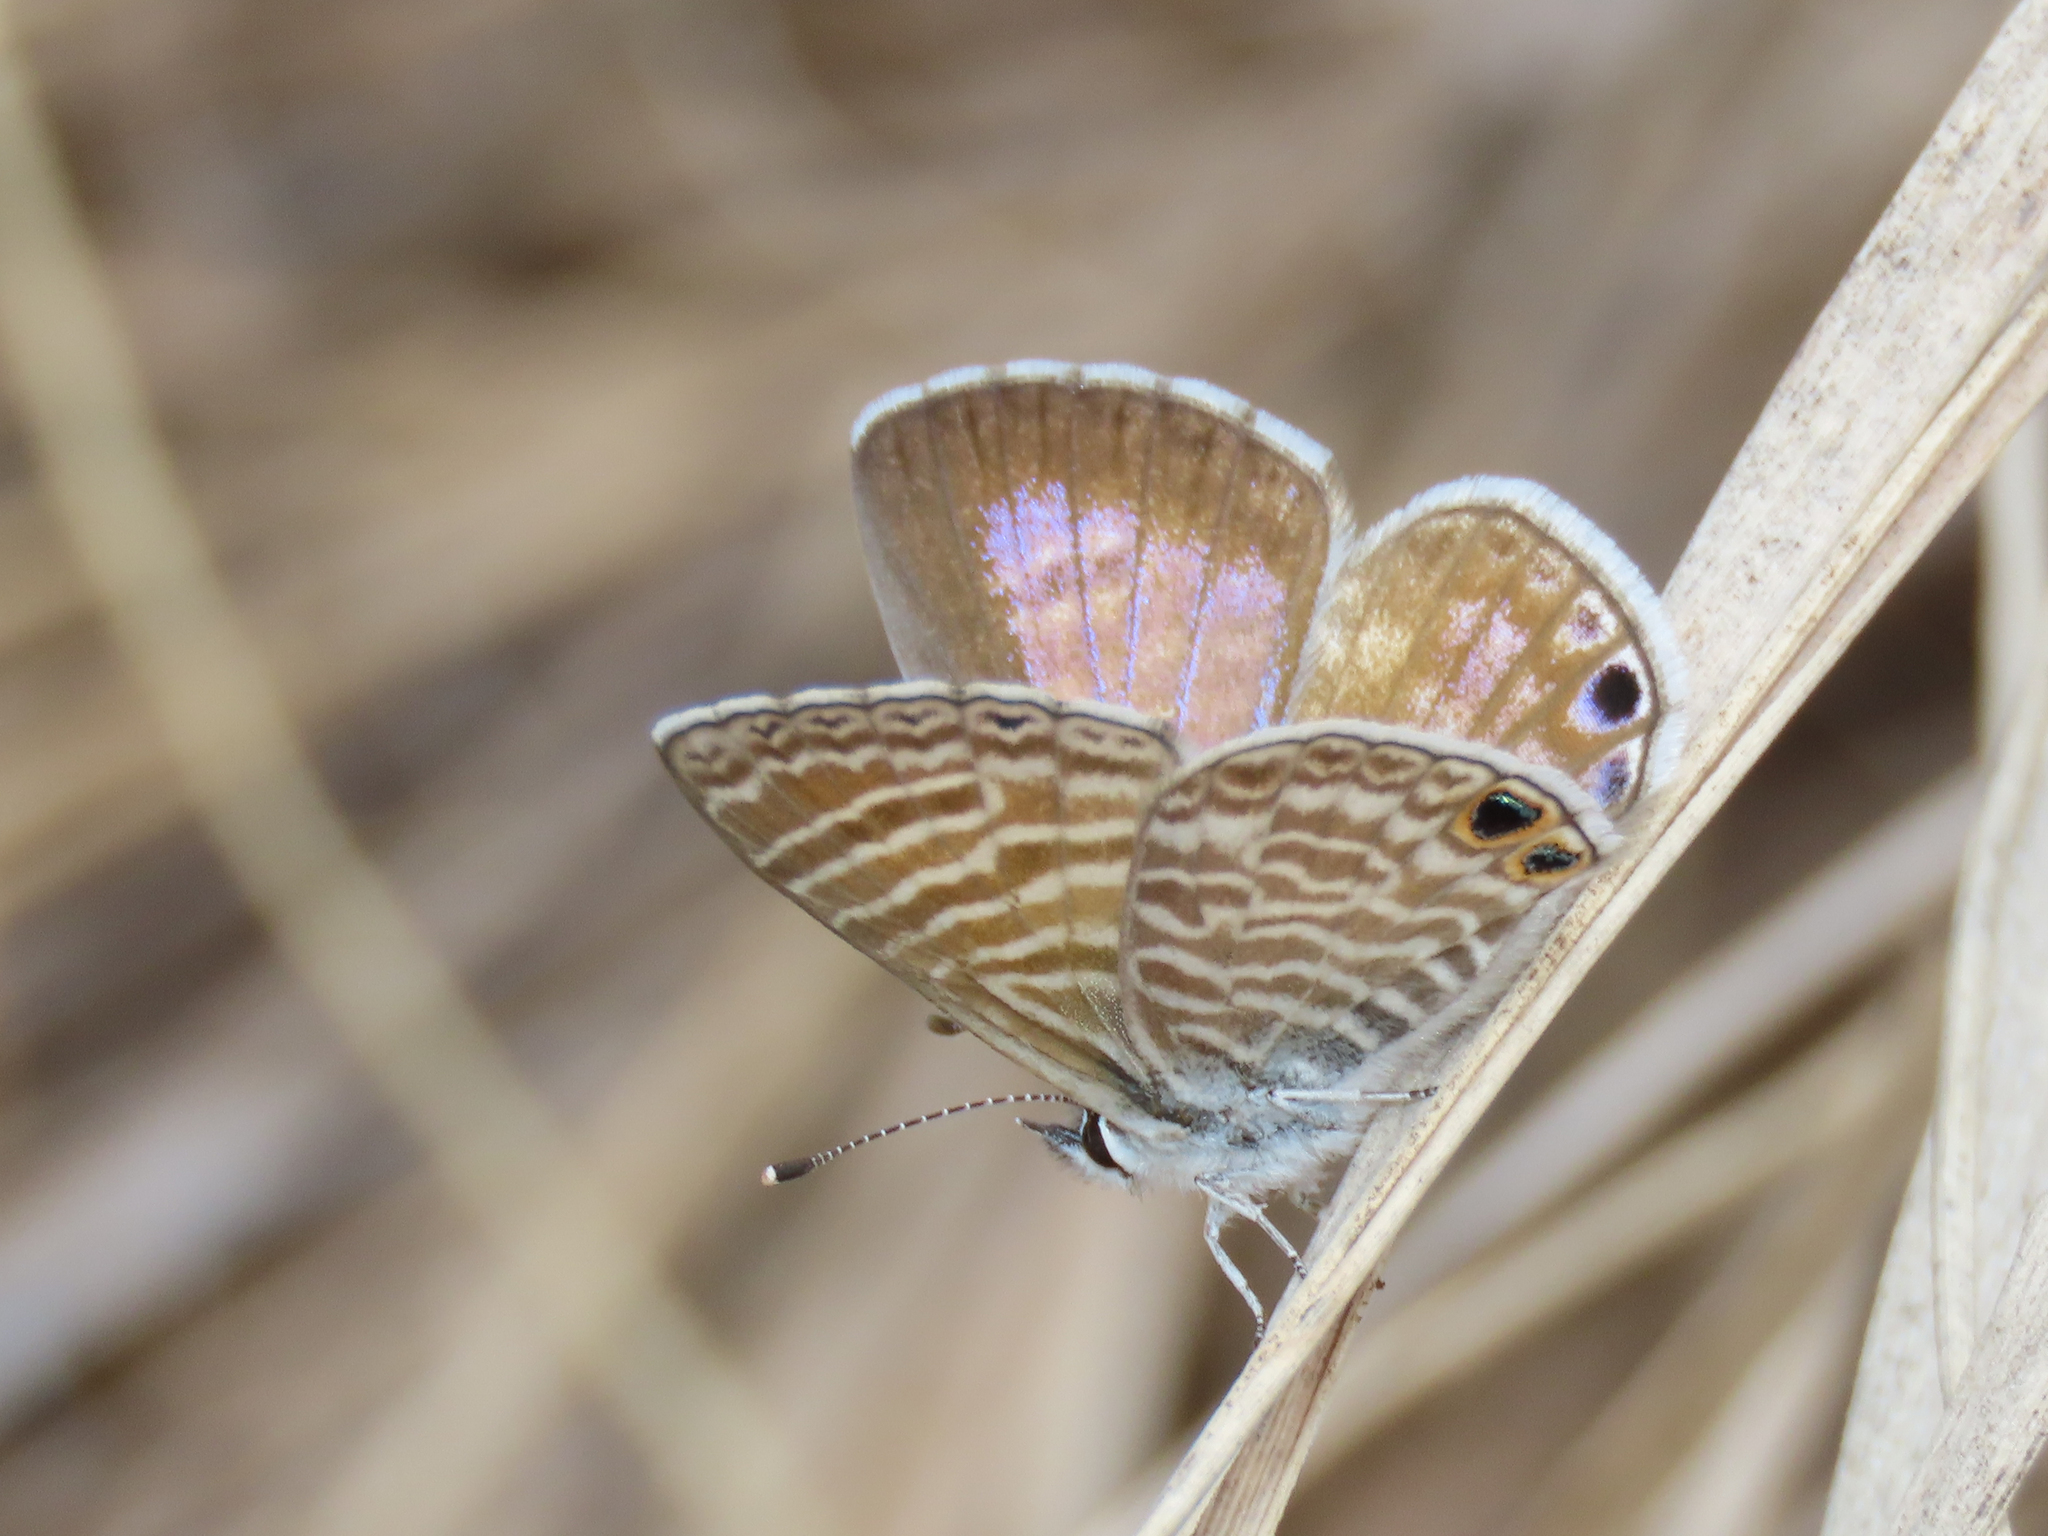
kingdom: Animalia
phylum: Arthropoda
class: Insecta
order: Lepidoptera
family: Lycaenidae
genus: Leptotes
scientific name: Leptotes marina
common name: Marine blue
